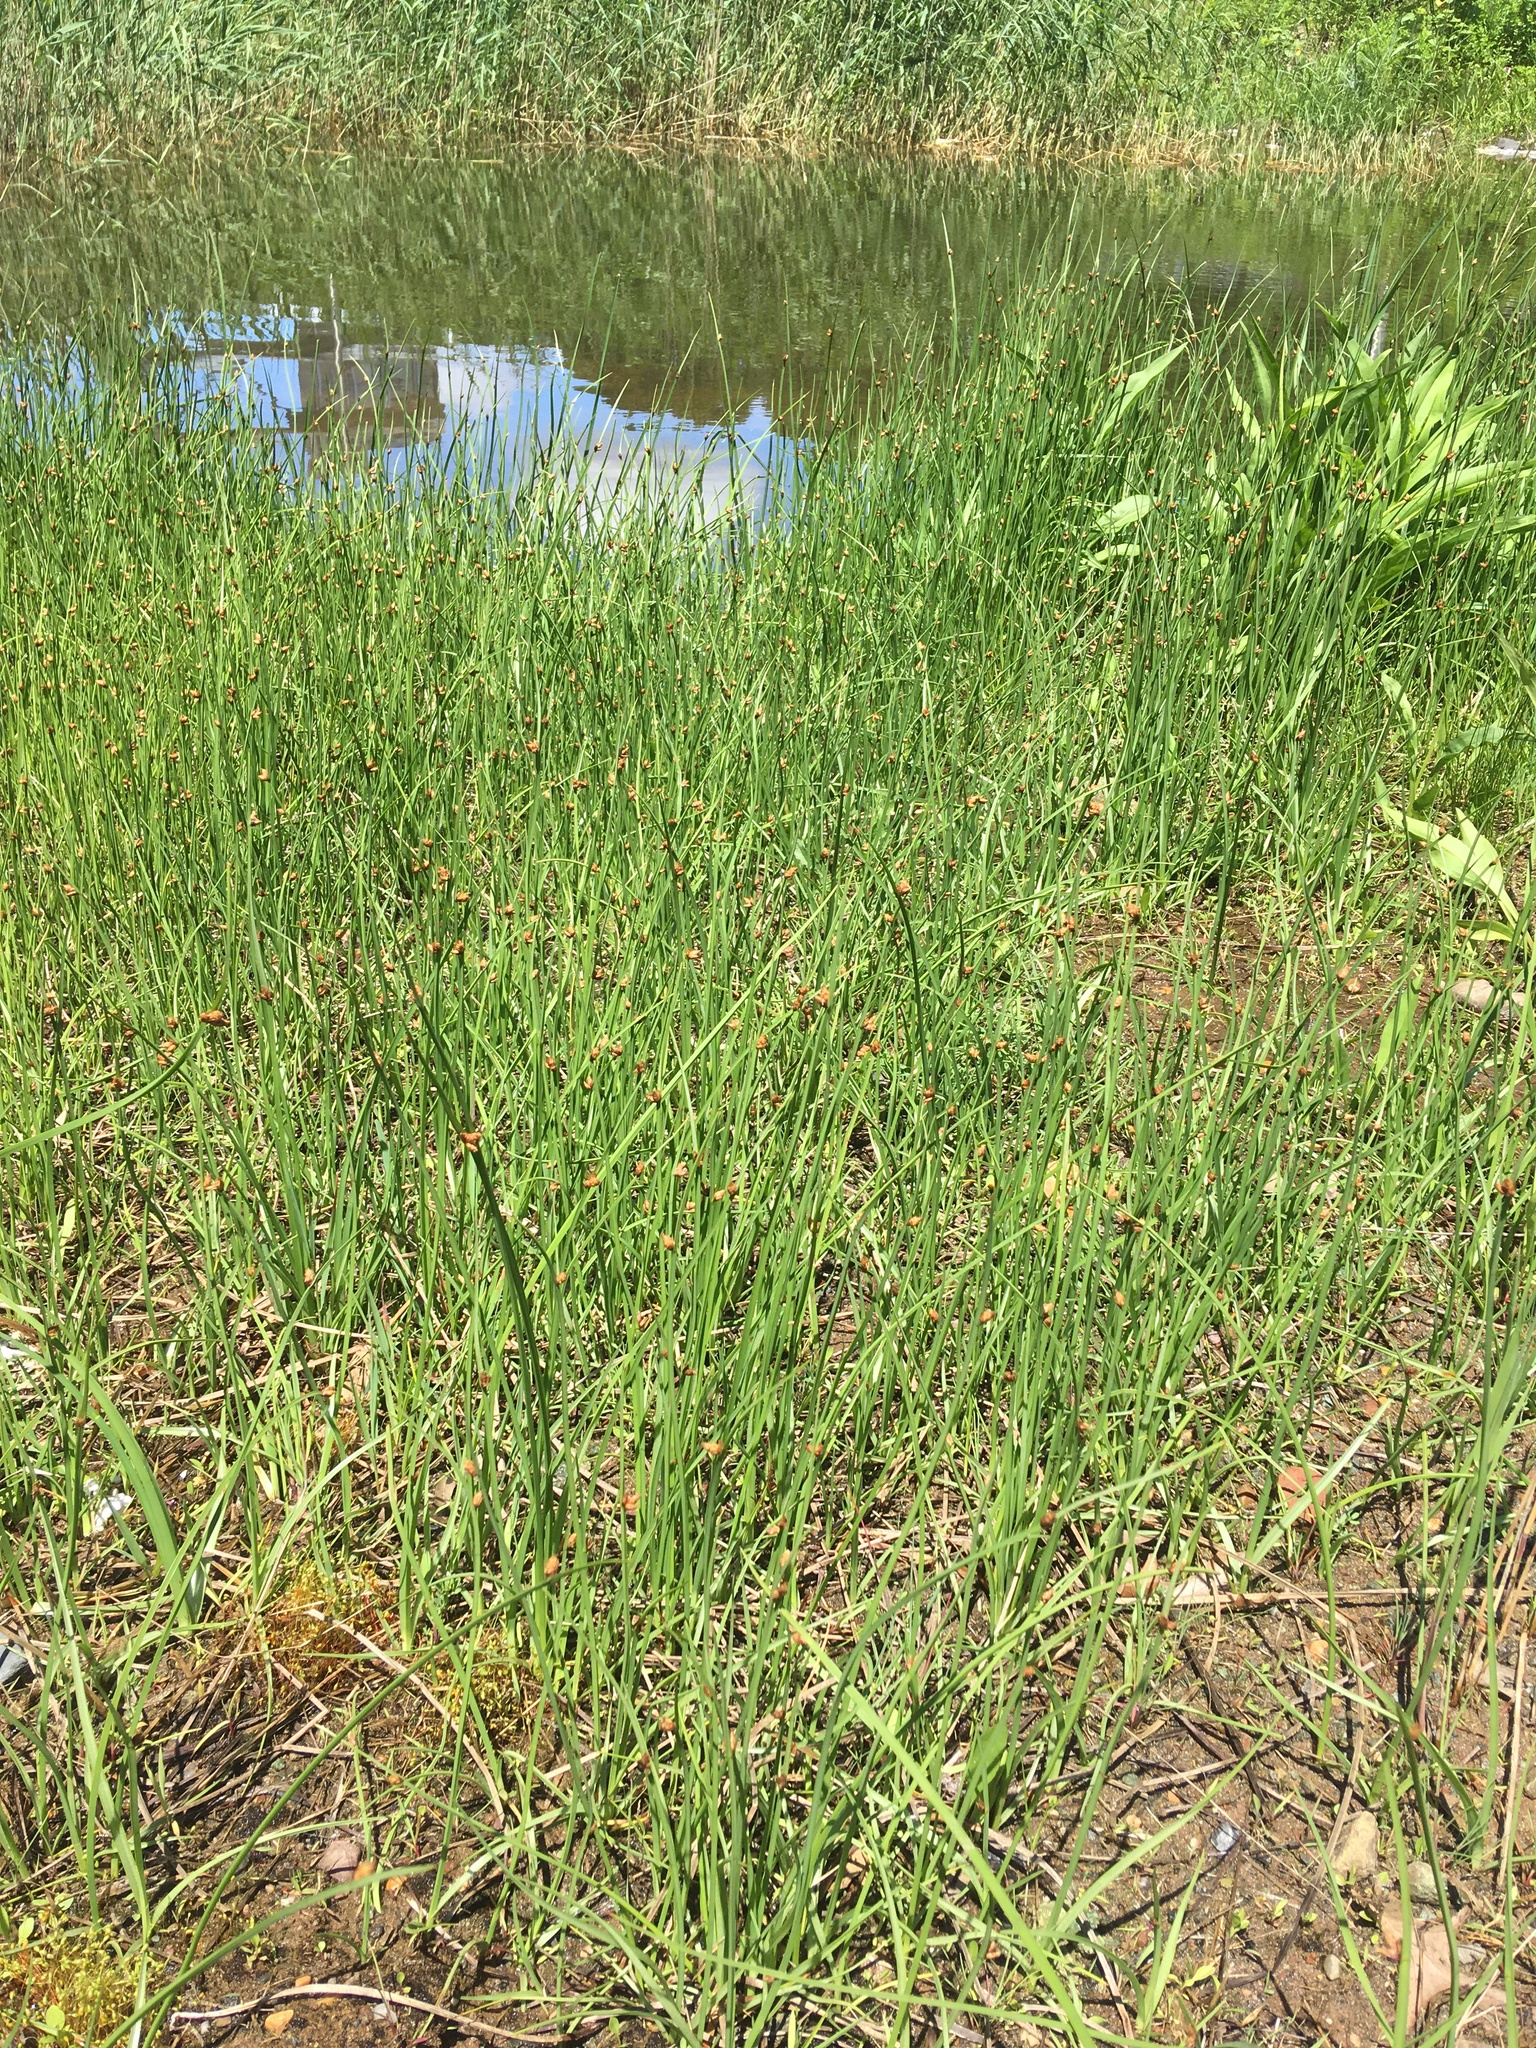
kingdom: Plantae
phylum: Tracheophyta
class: Liliopsida
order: Poales
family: Cyperaceae
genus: Schoenoplectus
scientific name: Schoenoplectus pungens
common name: Sharp club-rush
